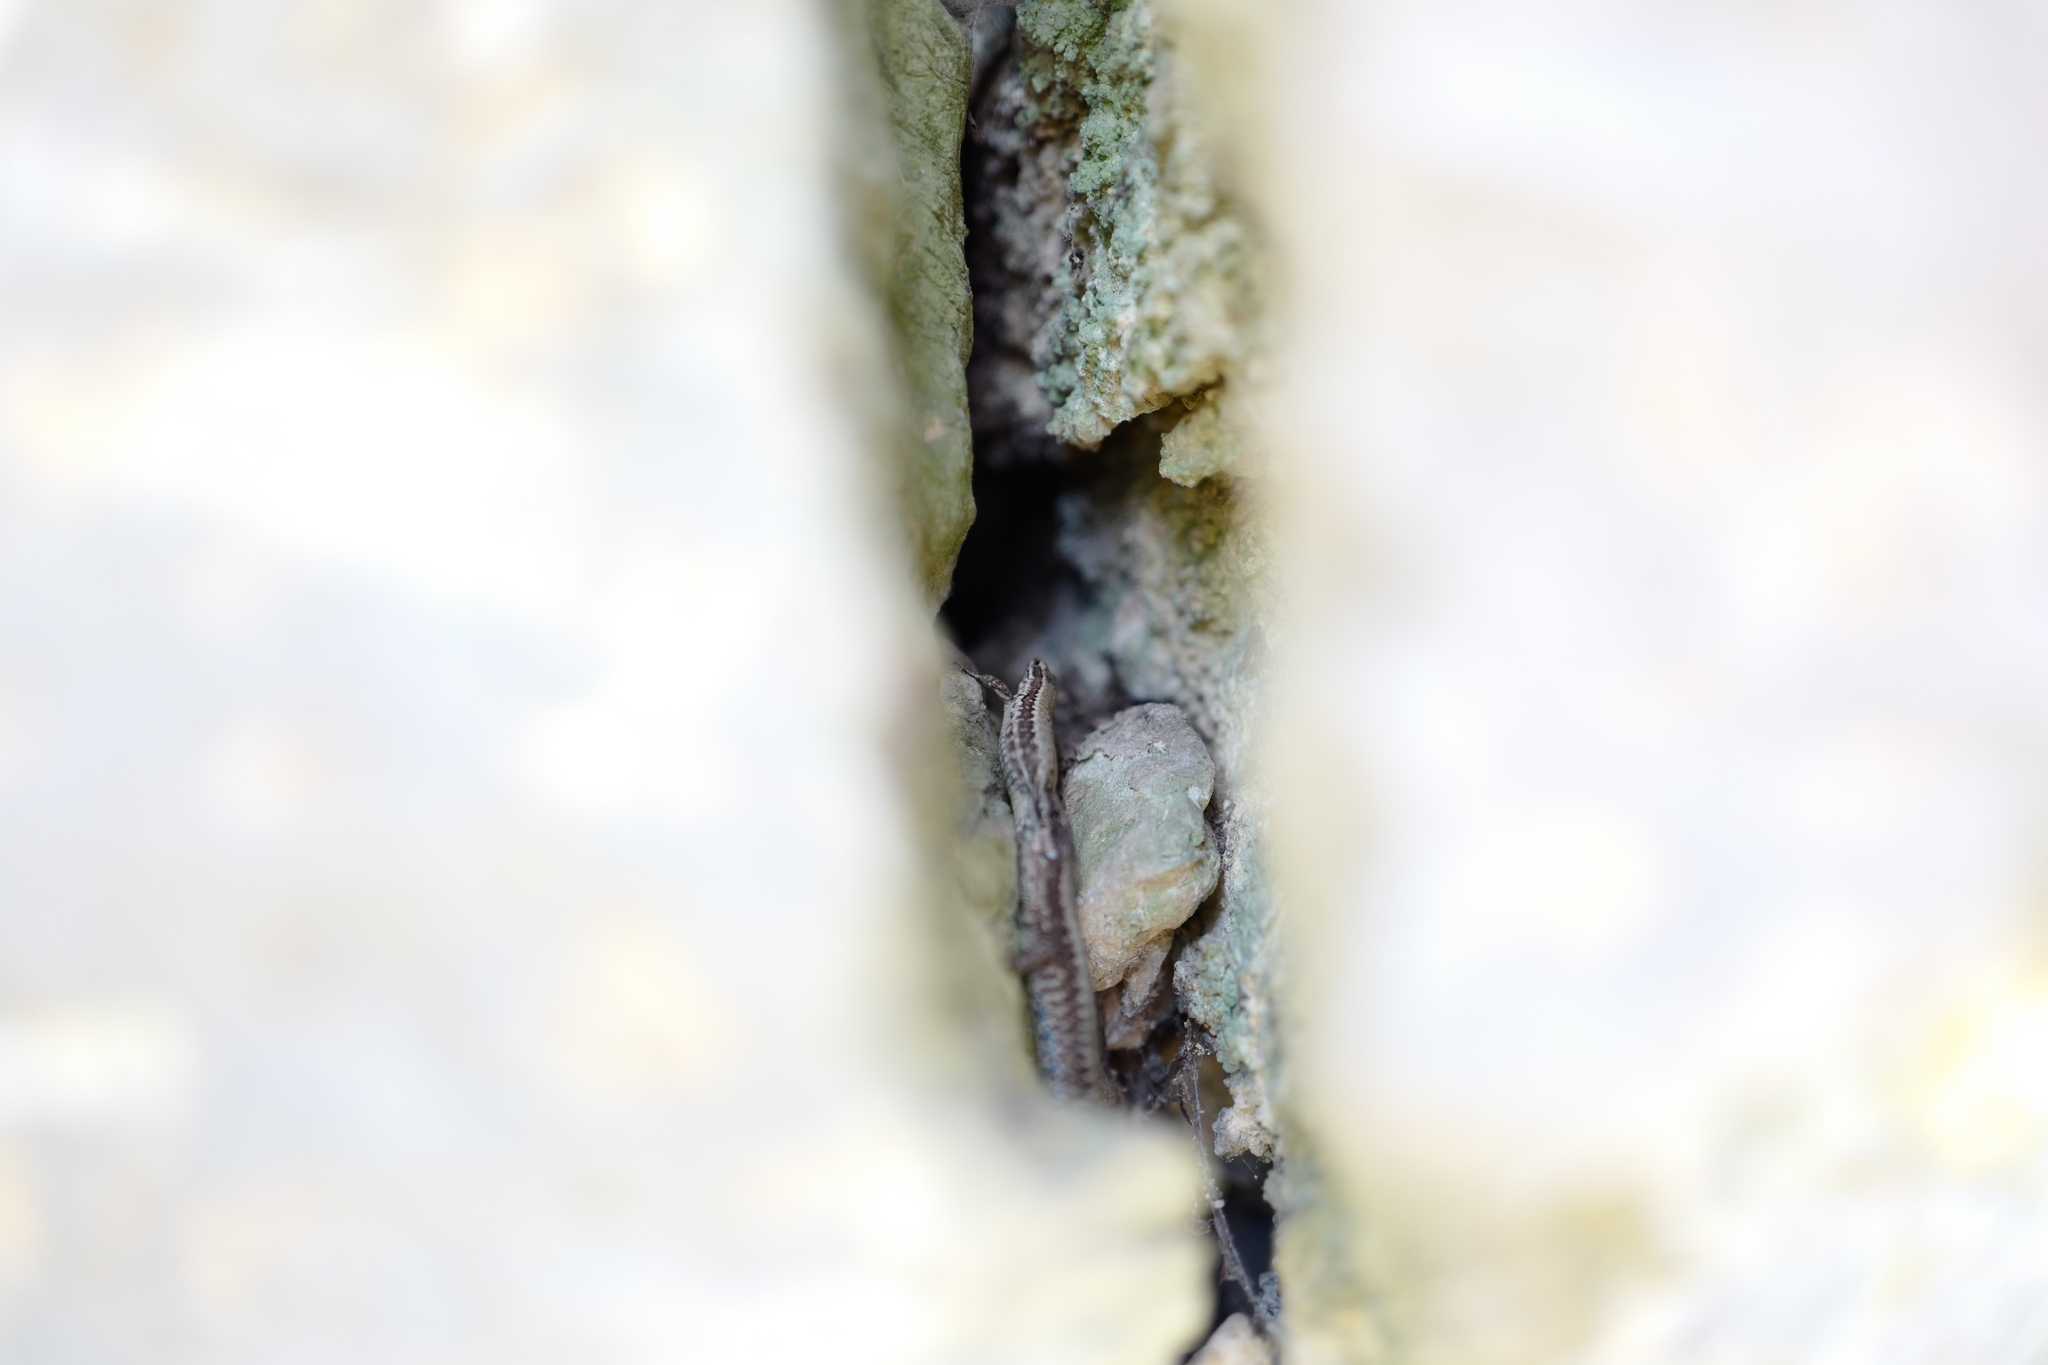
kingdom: Animalia
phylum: Chordata
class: Squamata
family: Lacertidae
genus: Podarcis
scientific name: Podarcis muralis
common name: Common wall lizard
